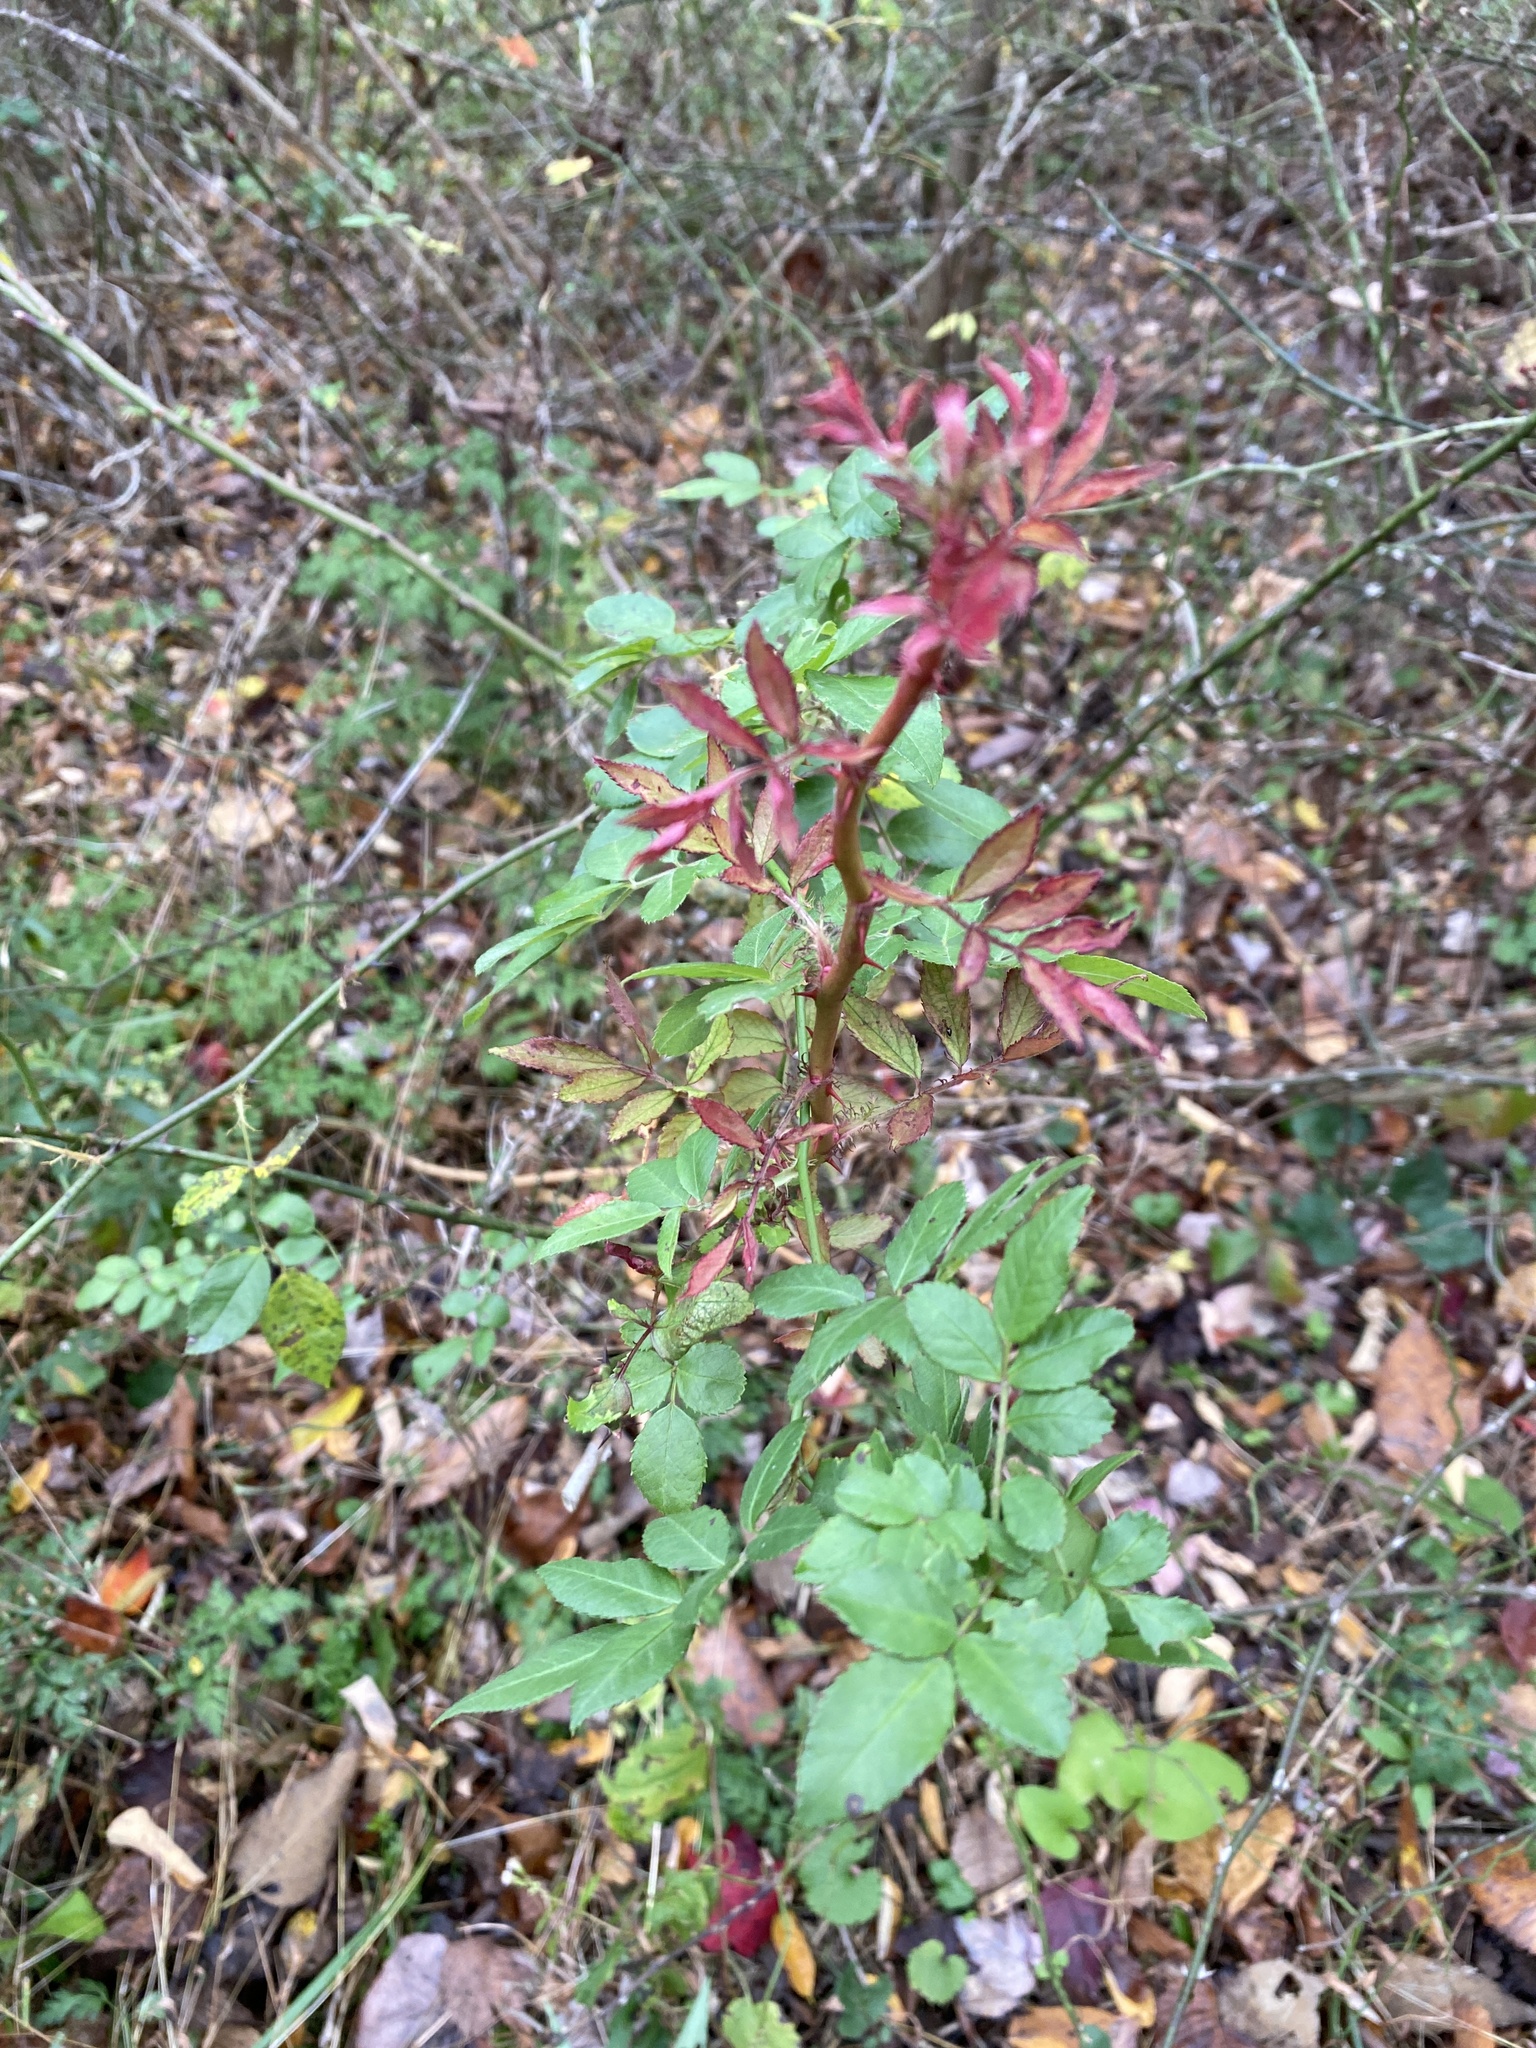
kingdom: Plantae
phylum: Tracheophyta
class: Magnoliopsida
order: Rosales
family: Rosaceae
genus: Rosa
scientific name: Rosa multiflora
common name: Multiflora rose
